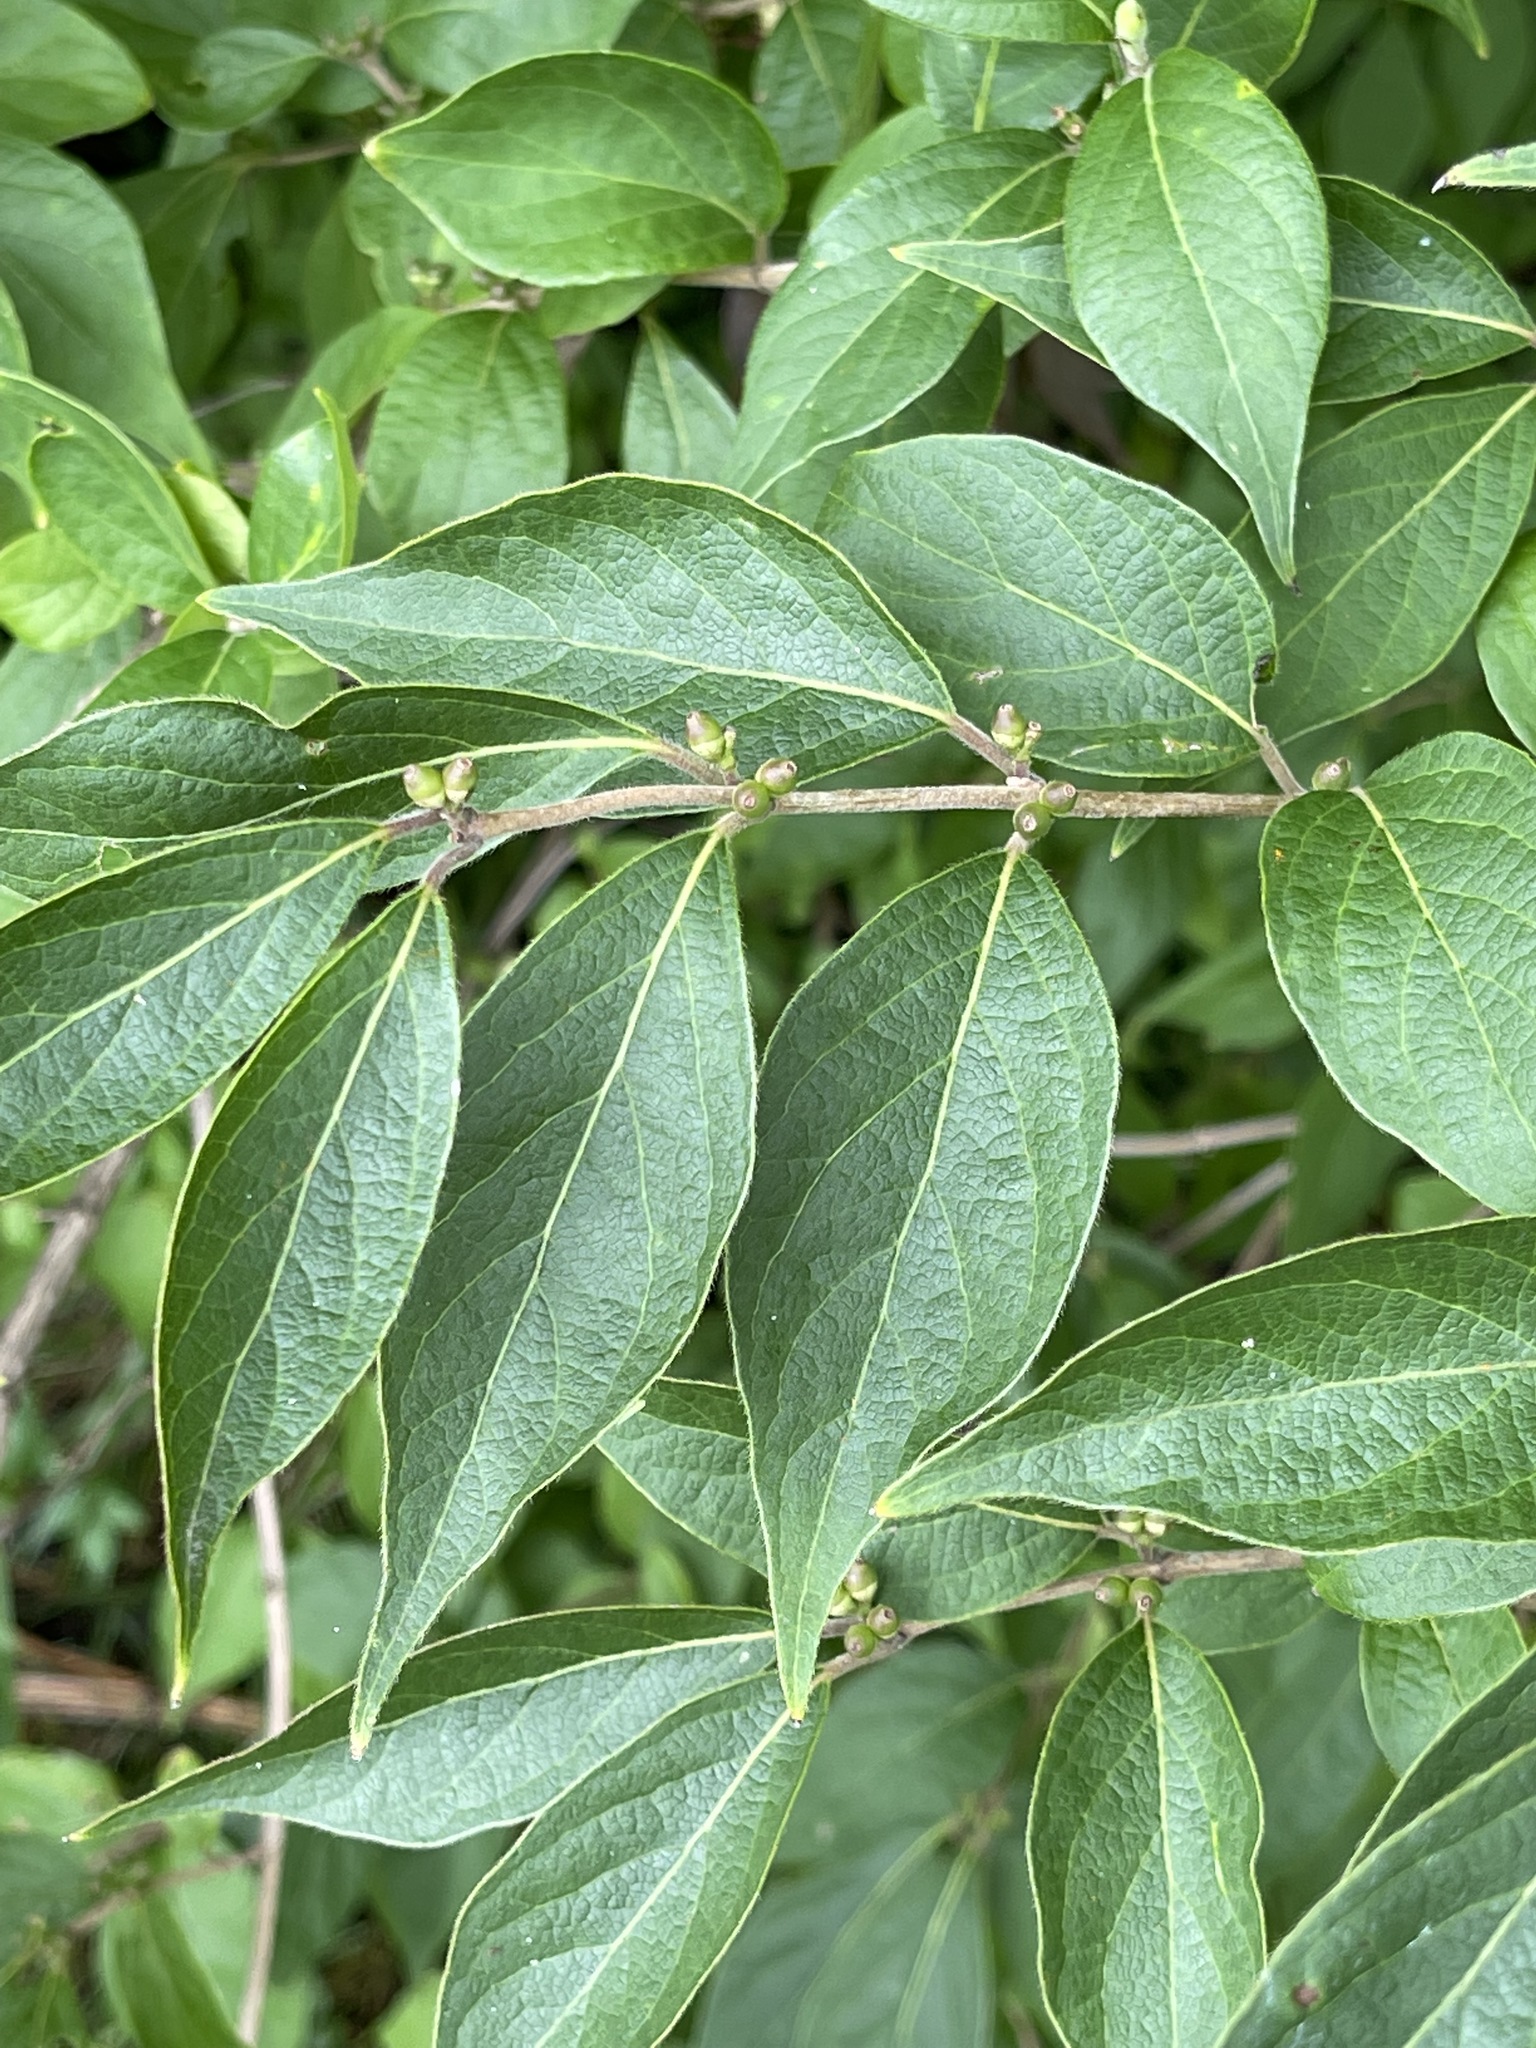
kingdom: Plantae
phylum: Tracheophyta
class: Magnoliopsida
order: Dipsacales
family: Caprifoliaceae
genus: Lonicera
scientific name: Lonicera maackii
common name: Amur honeysuckle
